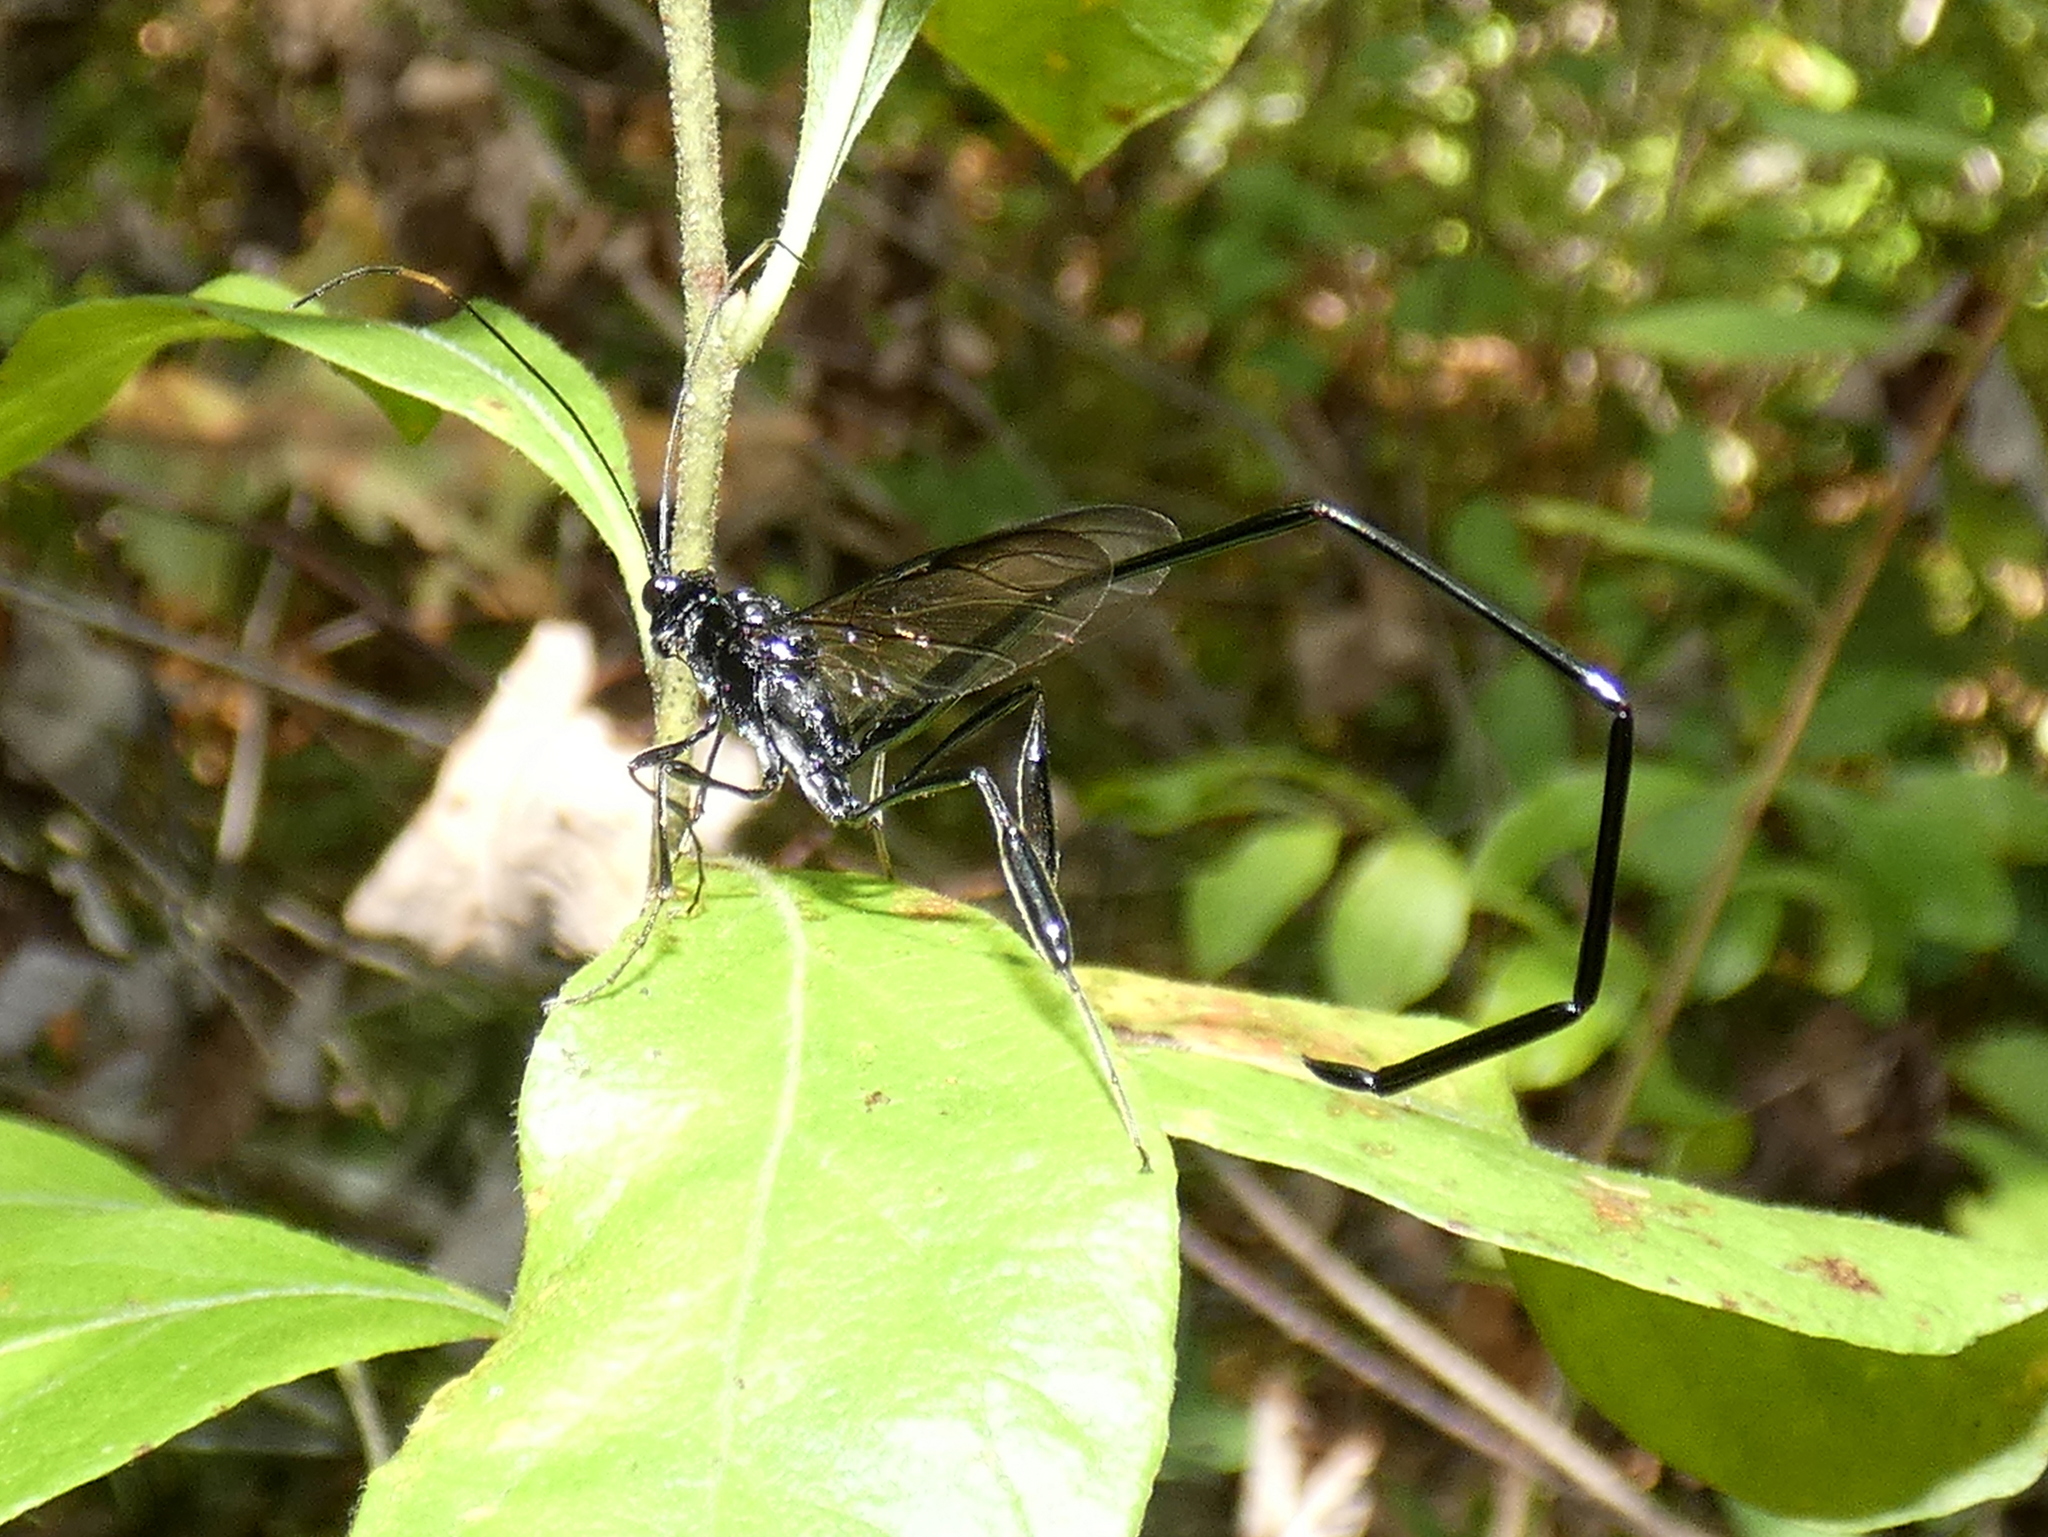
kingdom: Animalia
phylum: Arthropoda
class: Insecta
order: Hymenoptera
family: Pelecinidae
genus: Pelecinus
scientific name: Pelecinus polyturator
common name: American pelecinid wasp
